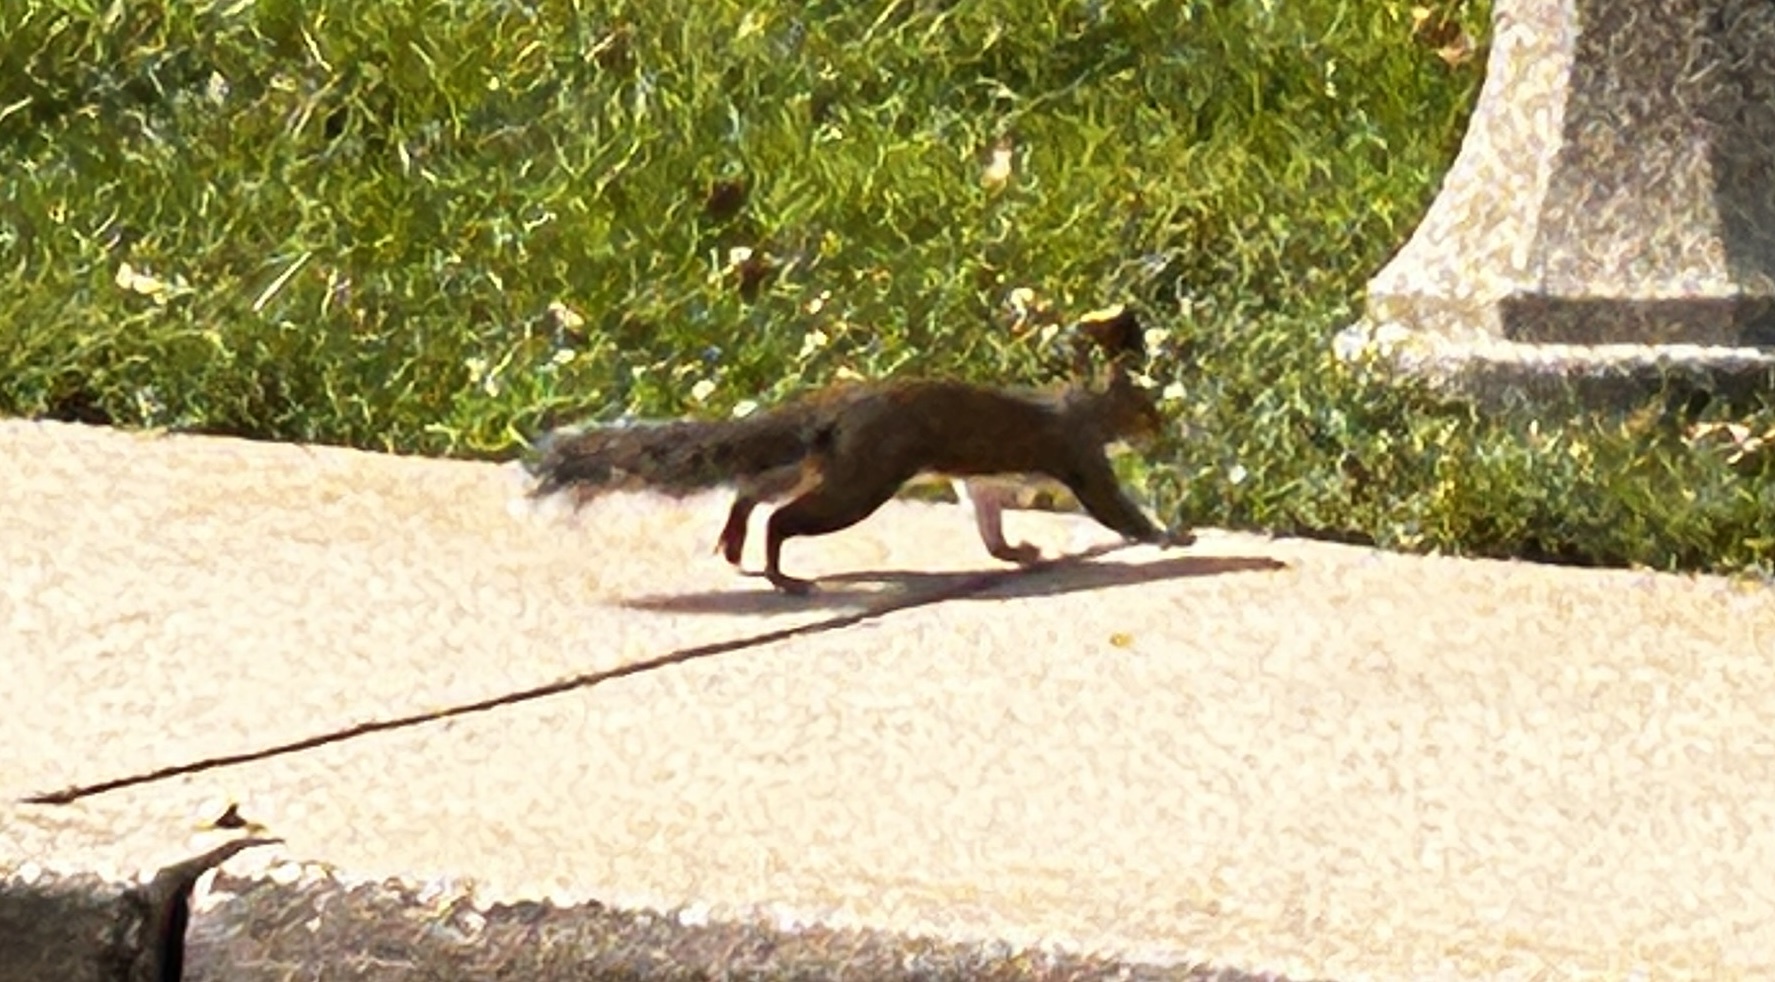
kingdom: Animalia
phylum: Chordata
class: Mammalia
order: Rodentia
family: Sciuridae
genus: Sciurus
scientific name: Sciurus carolinensis
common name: Eastern gray squirrel
